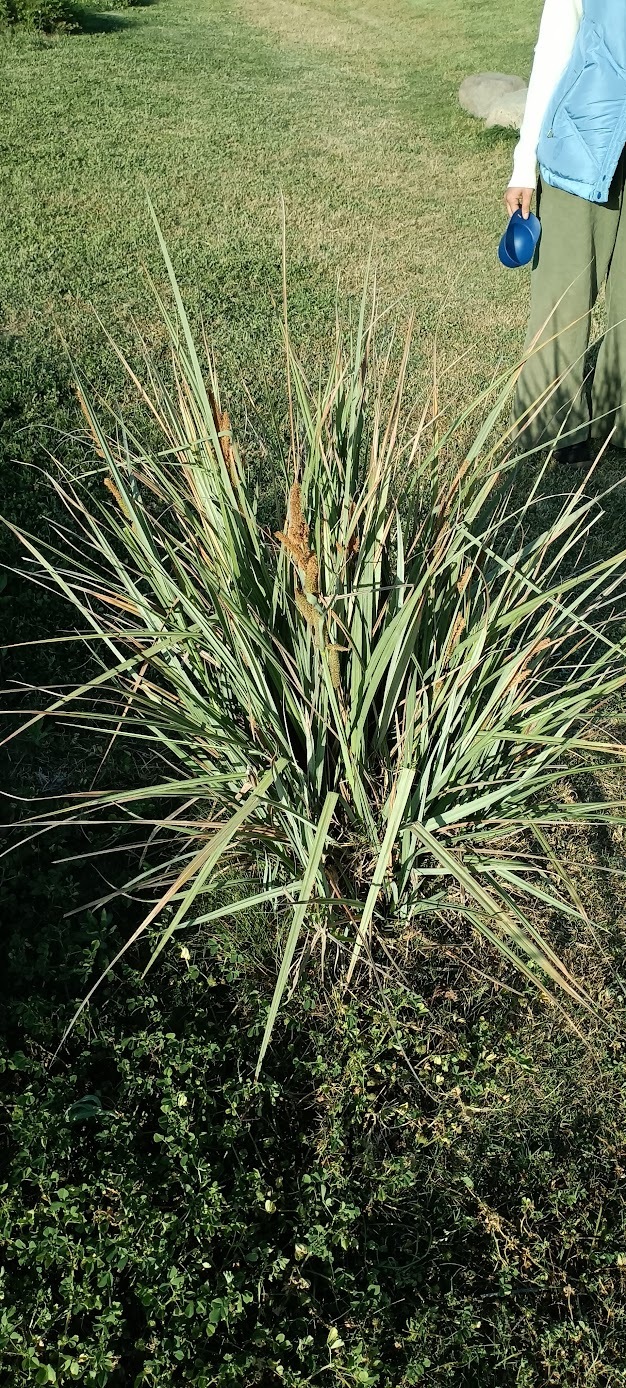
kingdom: Plantae
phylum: Tracheophyta
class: Liliopsida
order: Poales
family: Cyperaceae
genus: Carex
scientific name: Carex spissa
